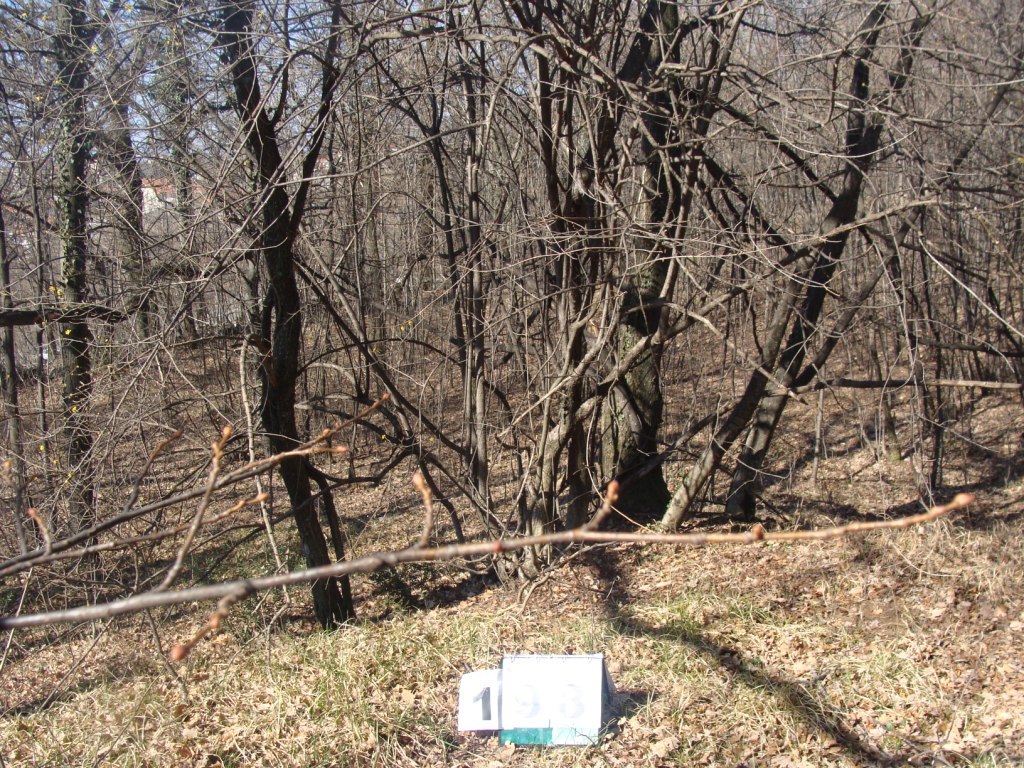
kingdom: Plantae
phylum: Tracheophyta
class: Magnoliopsida
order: Cornales
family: Cornaceae
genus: Cornus
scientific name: Cornus mas
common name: Cornelian-cherry
